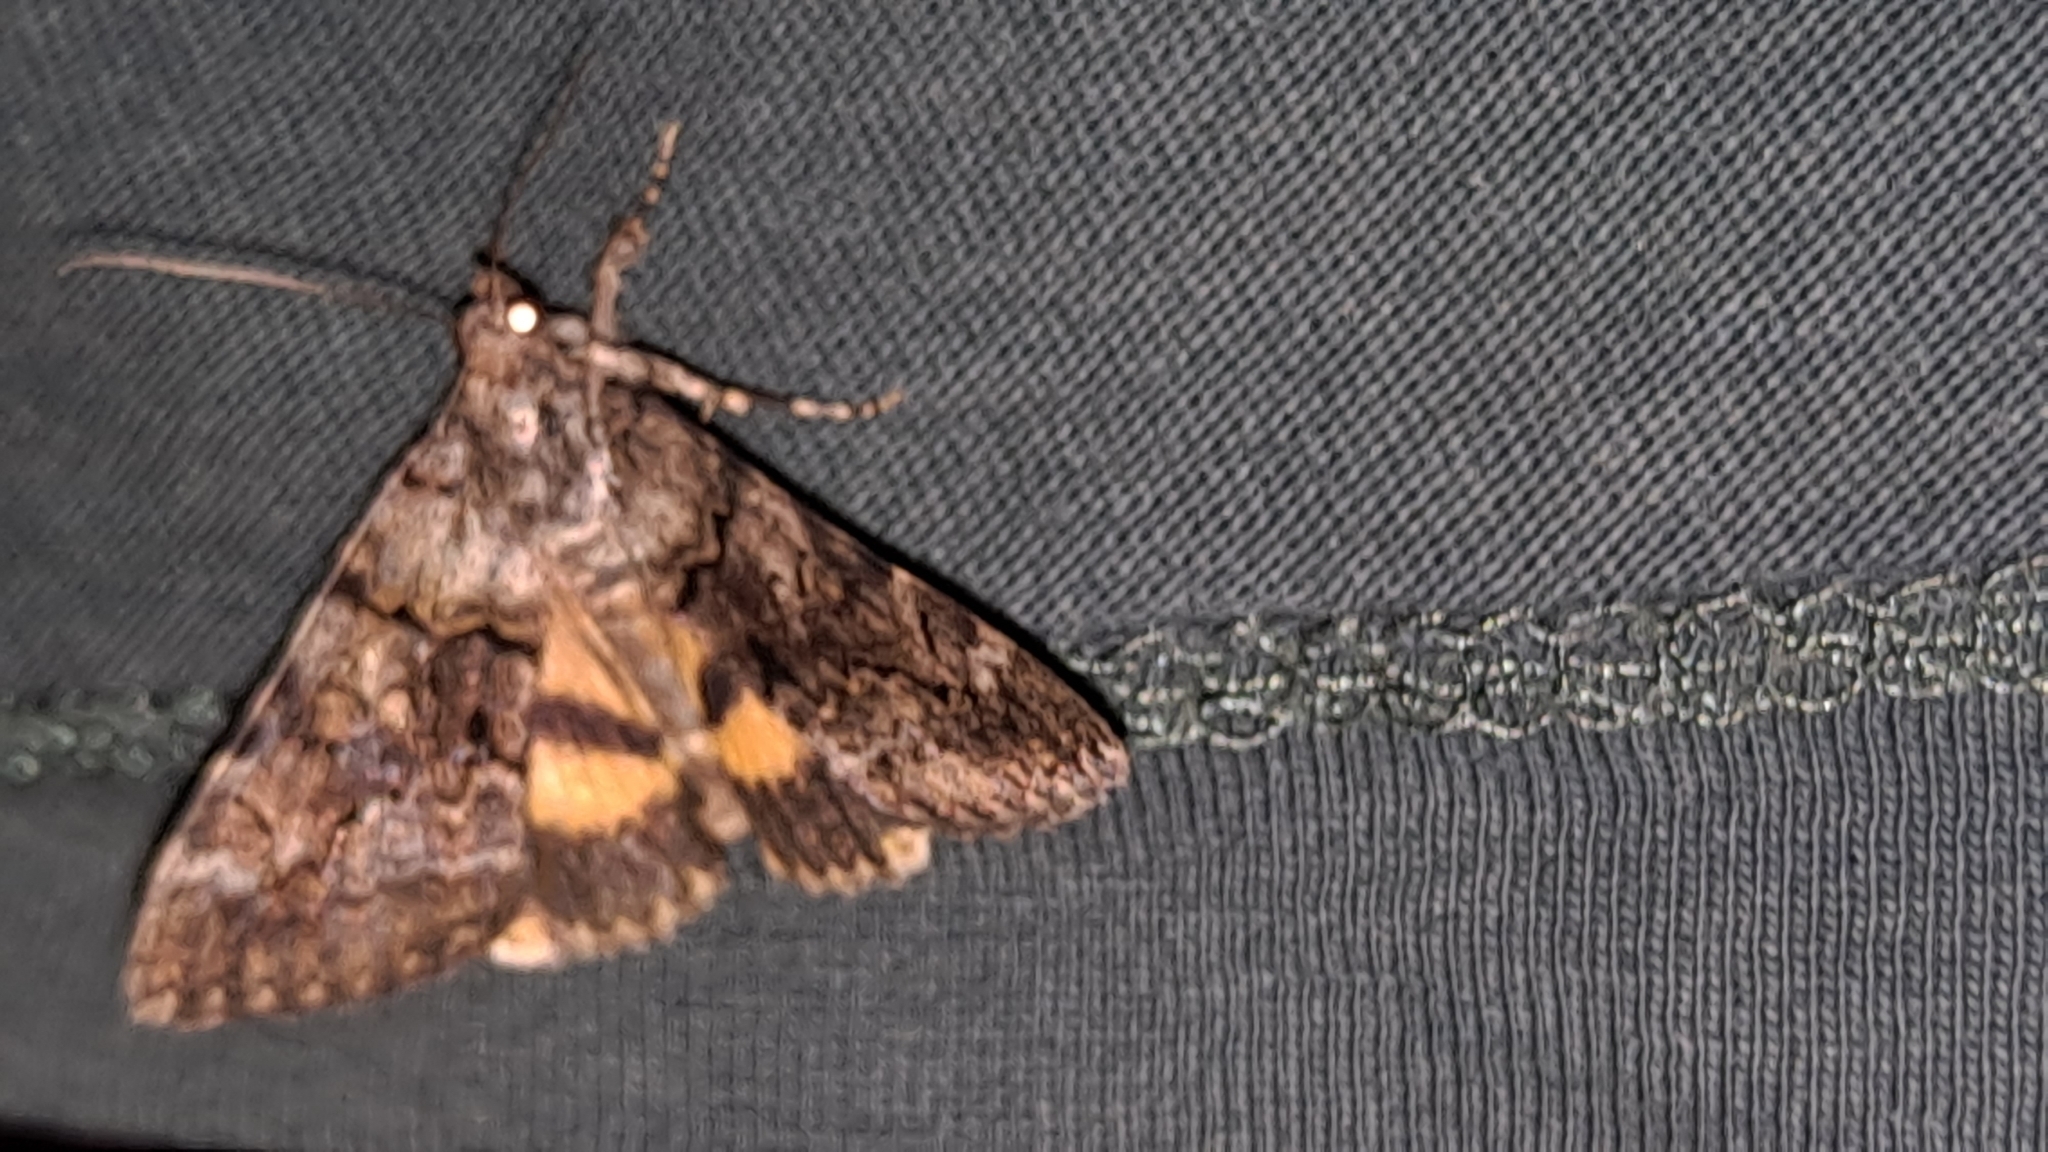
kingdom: Animalia
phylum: Arthropoda
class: Insecta
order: Lepidoptera
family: Erebidae
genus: Catocala
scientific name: Catocala nymphagoga
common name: Oak yellow underwing
